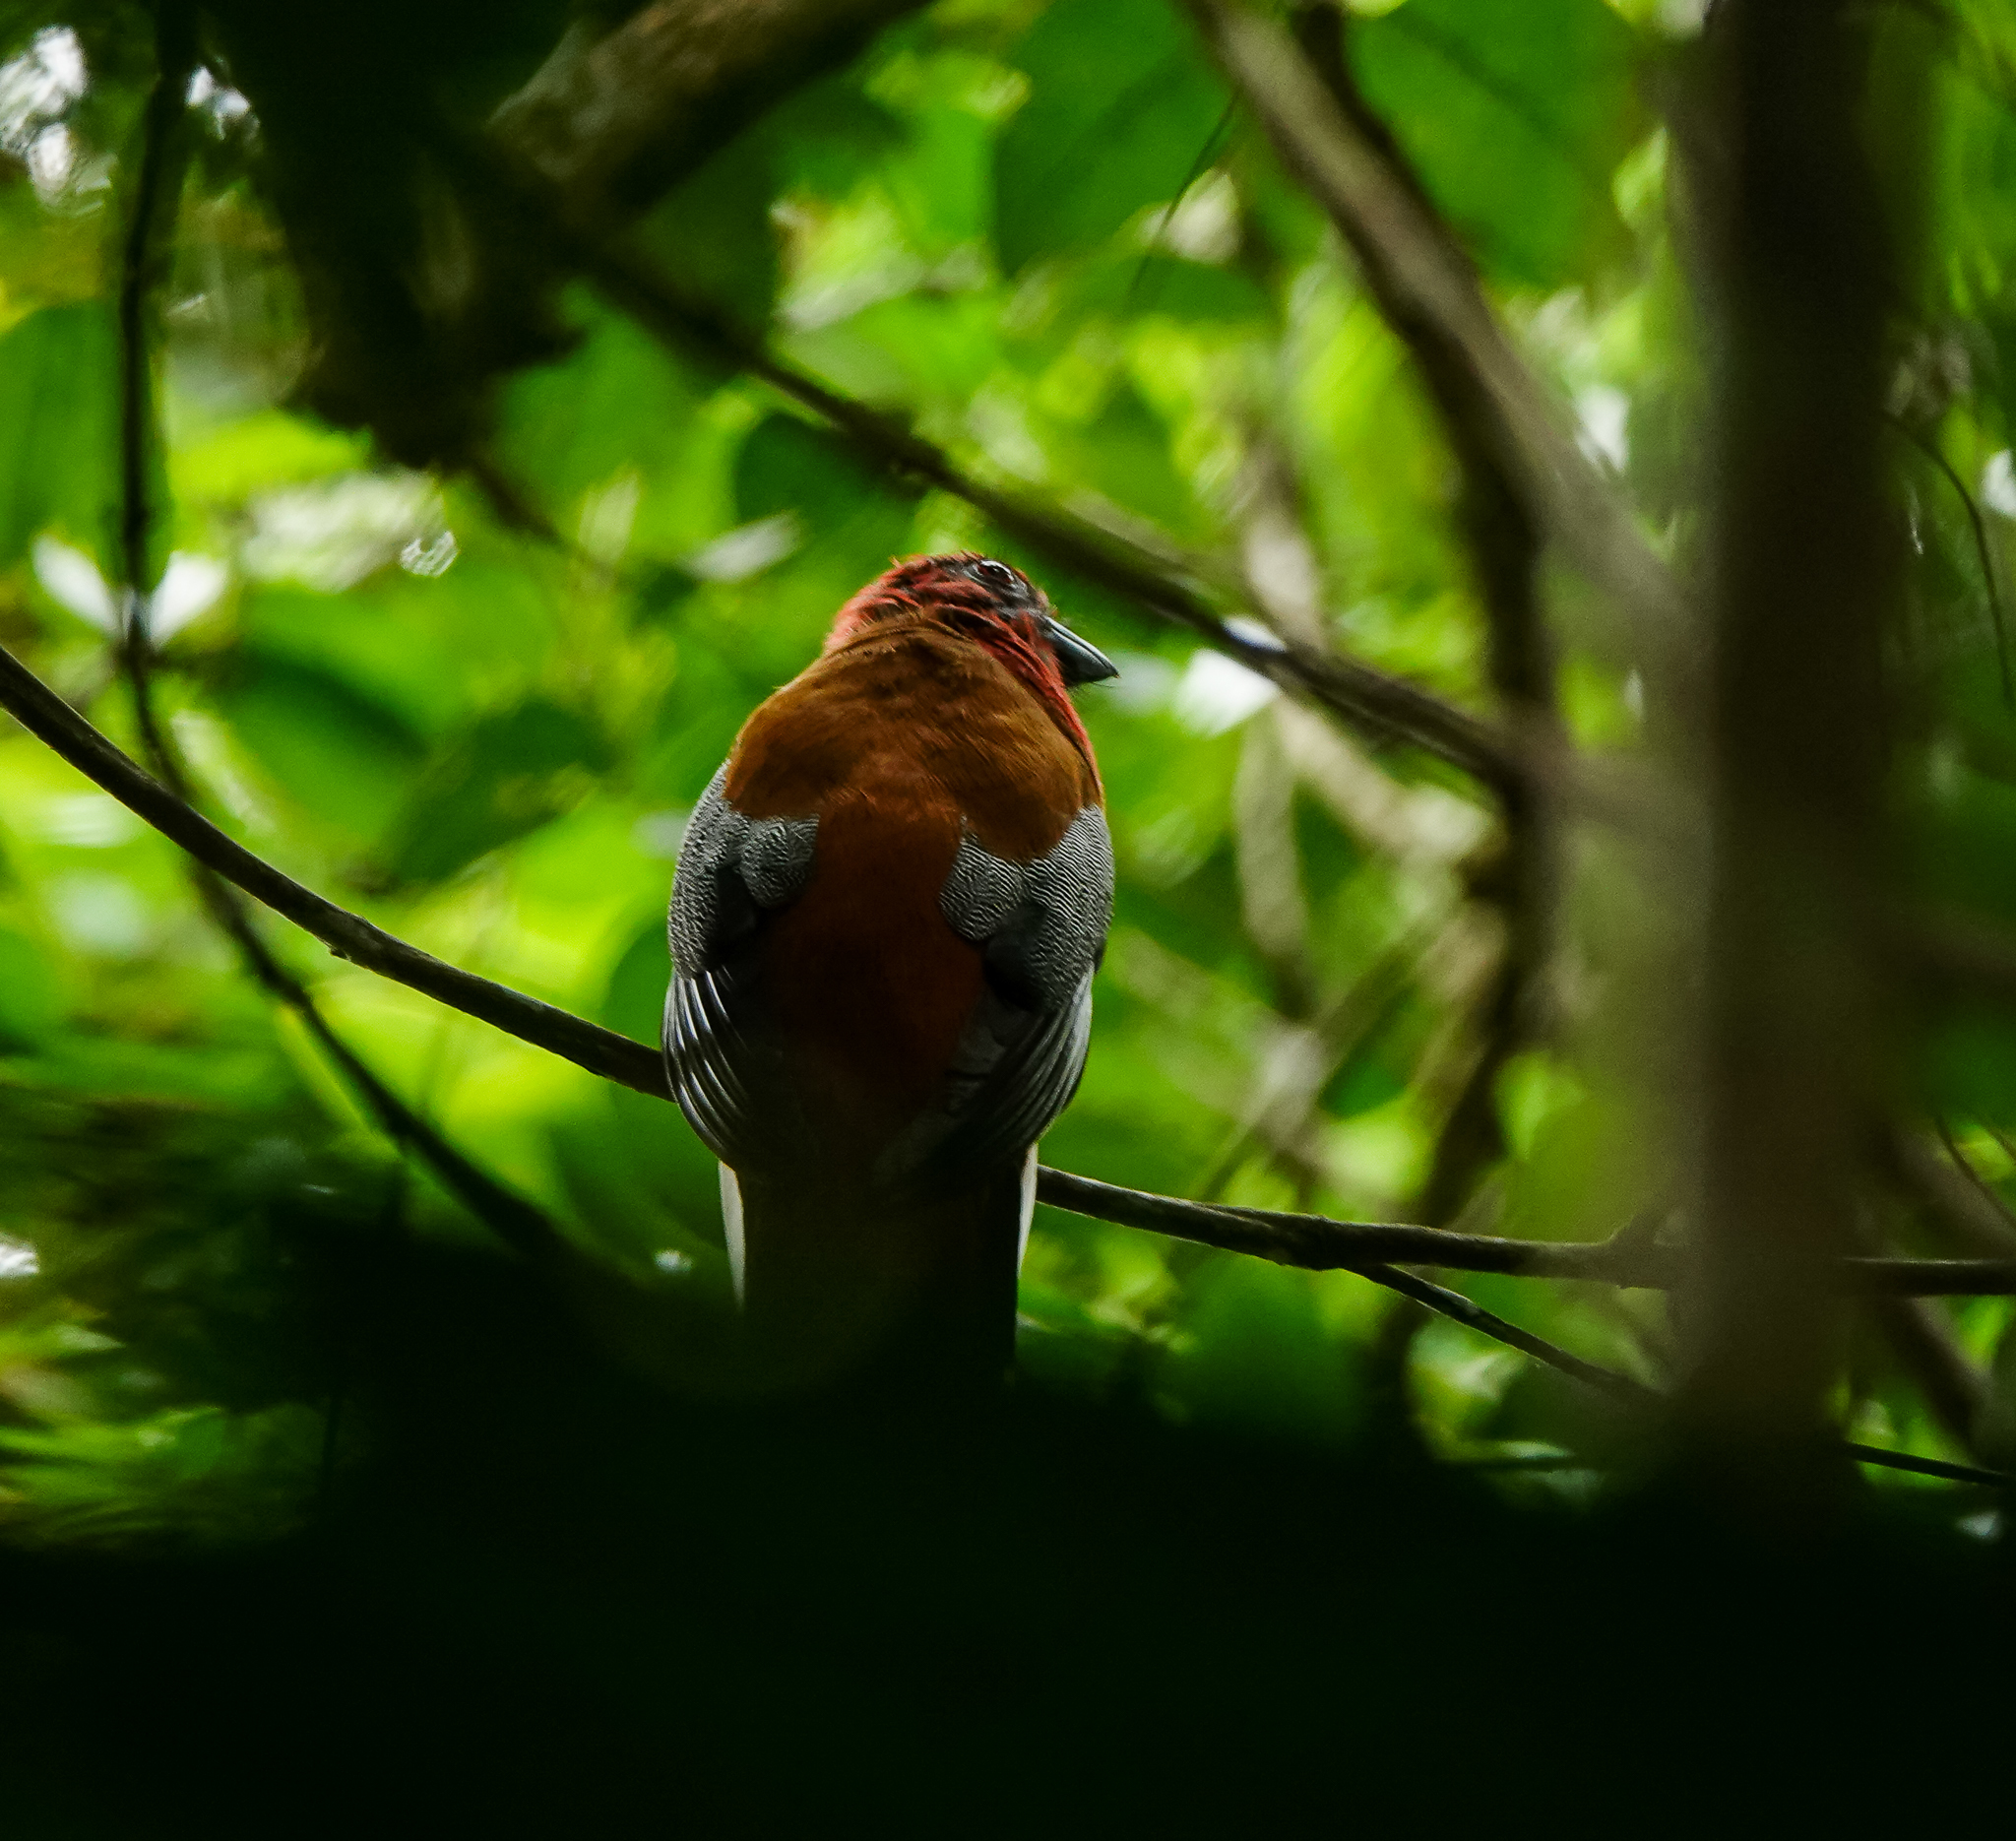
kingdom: Animalia
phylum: Chordata
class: Aves
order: Trogoniformes
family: Trogonidae
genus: Harpactes
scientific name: Harpactes erythrocephalus
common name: Red-headed trogon
